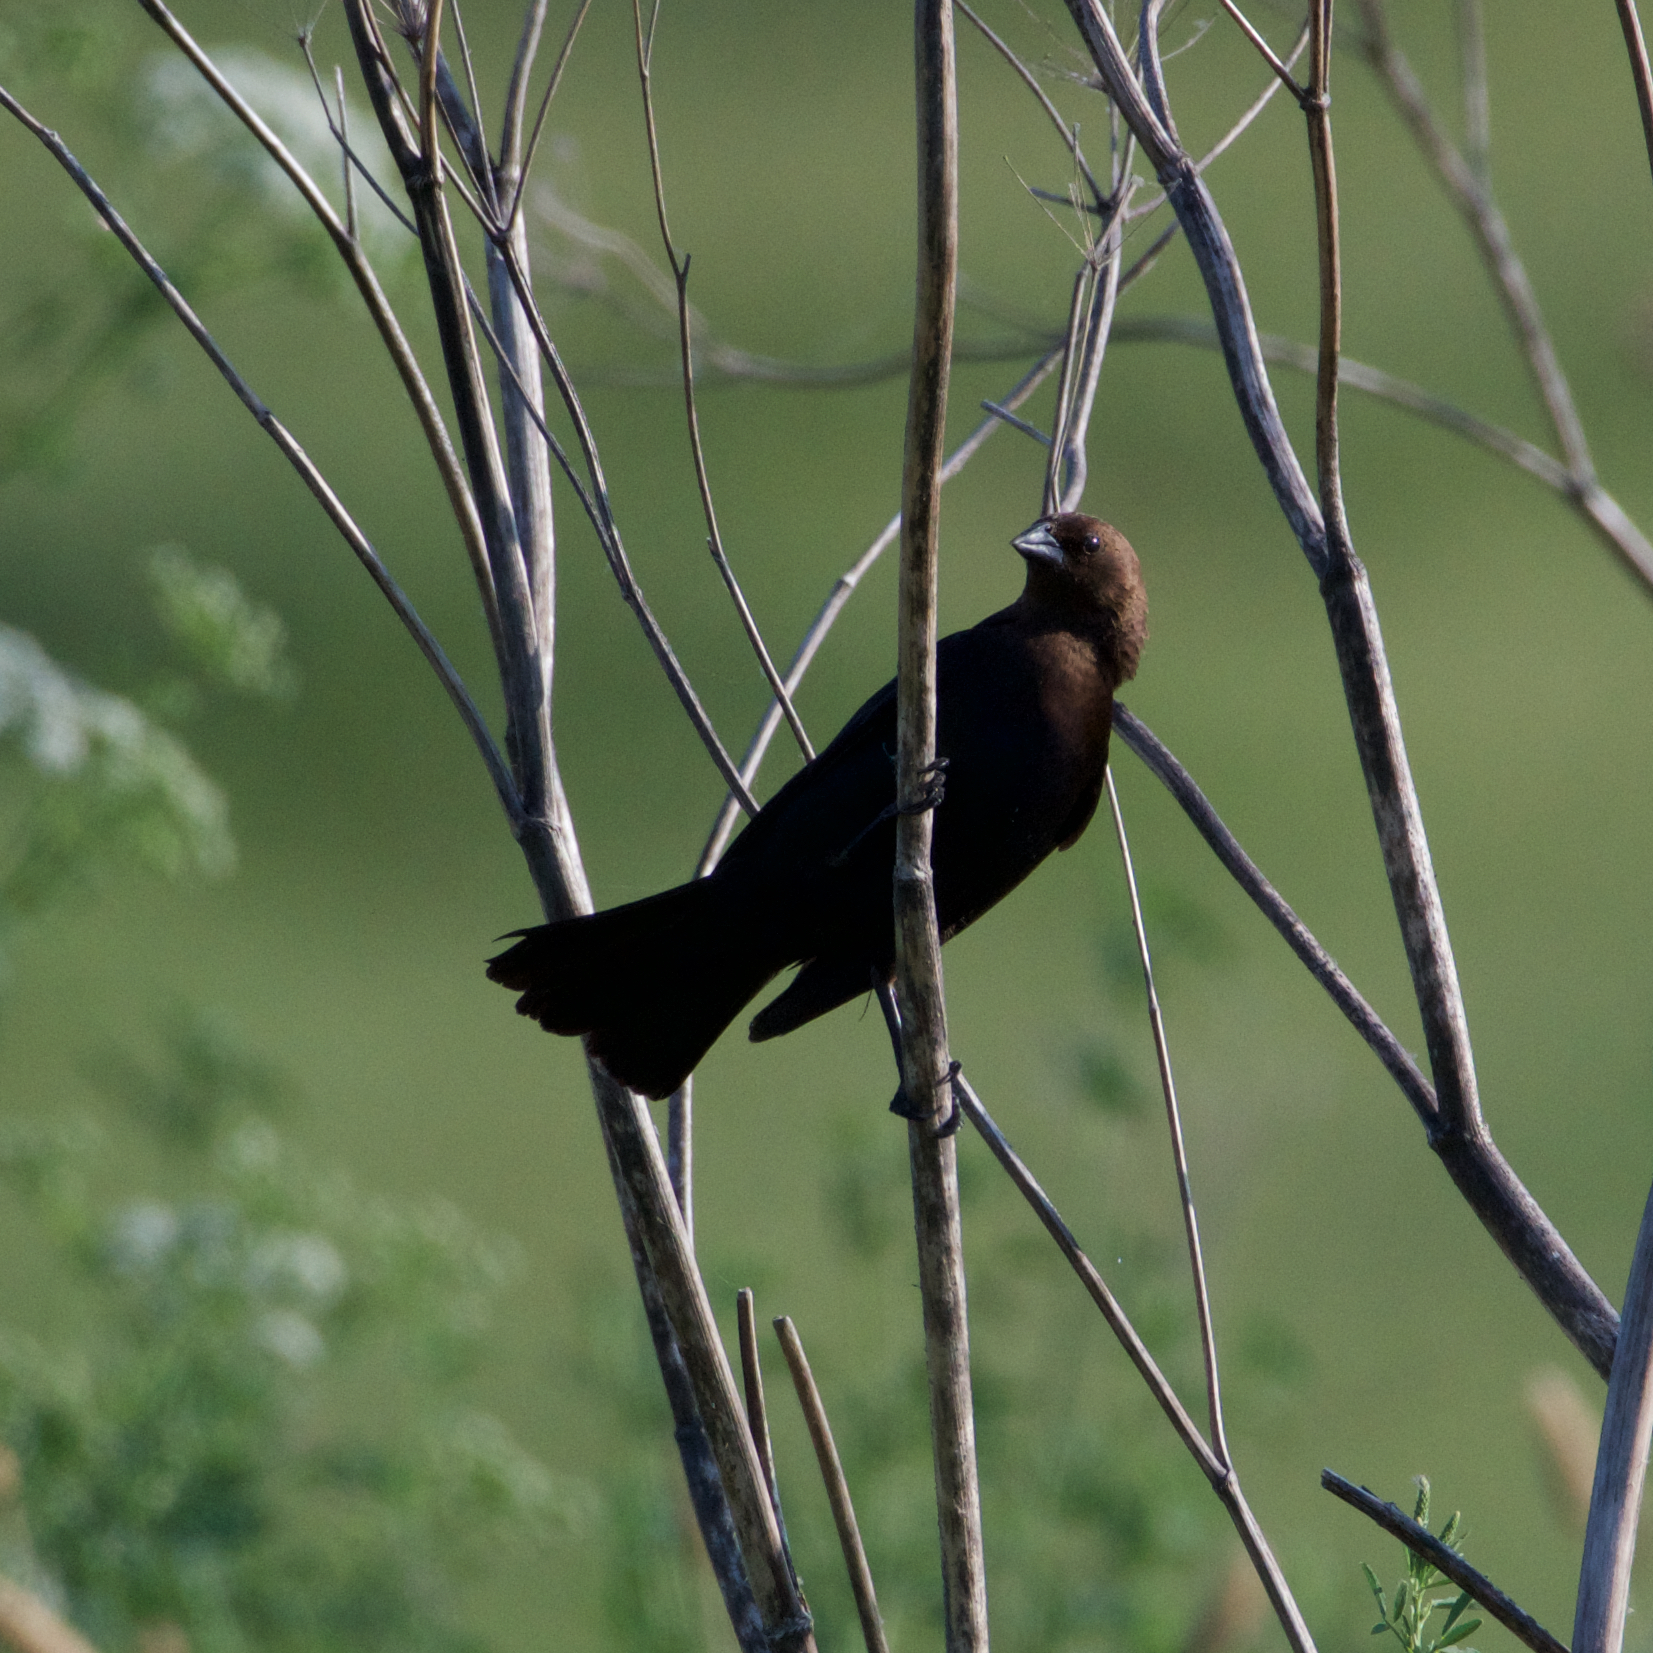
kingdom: Animalia
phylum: Chordata
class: Aves
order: Passeriformes
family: Icteridae
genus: Molothrus
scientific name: Molothrus ater
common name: Brown-headed cowbird
